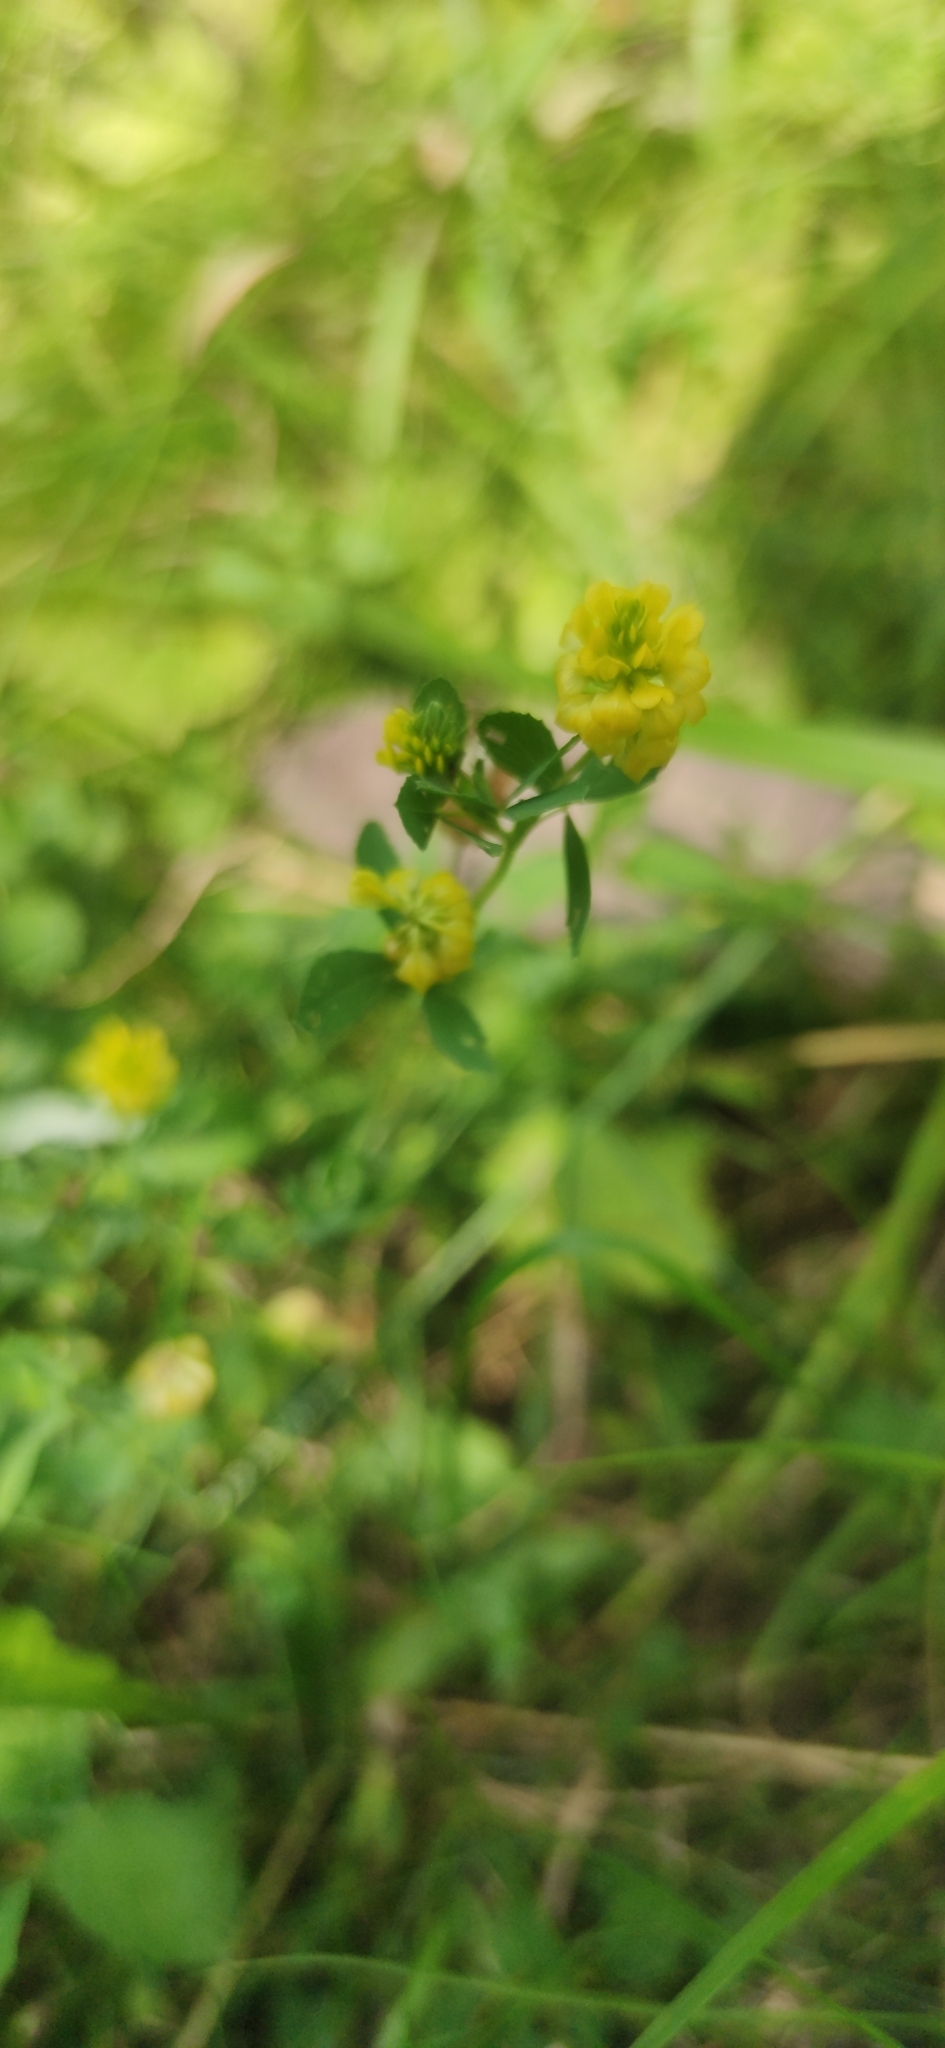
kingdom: Plantae
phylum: Tracheophyta
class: Magnoliopsida
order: Fabales
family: Fabaceae
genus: Trifolium
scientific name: Trifolium aureum
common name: Golden clover
